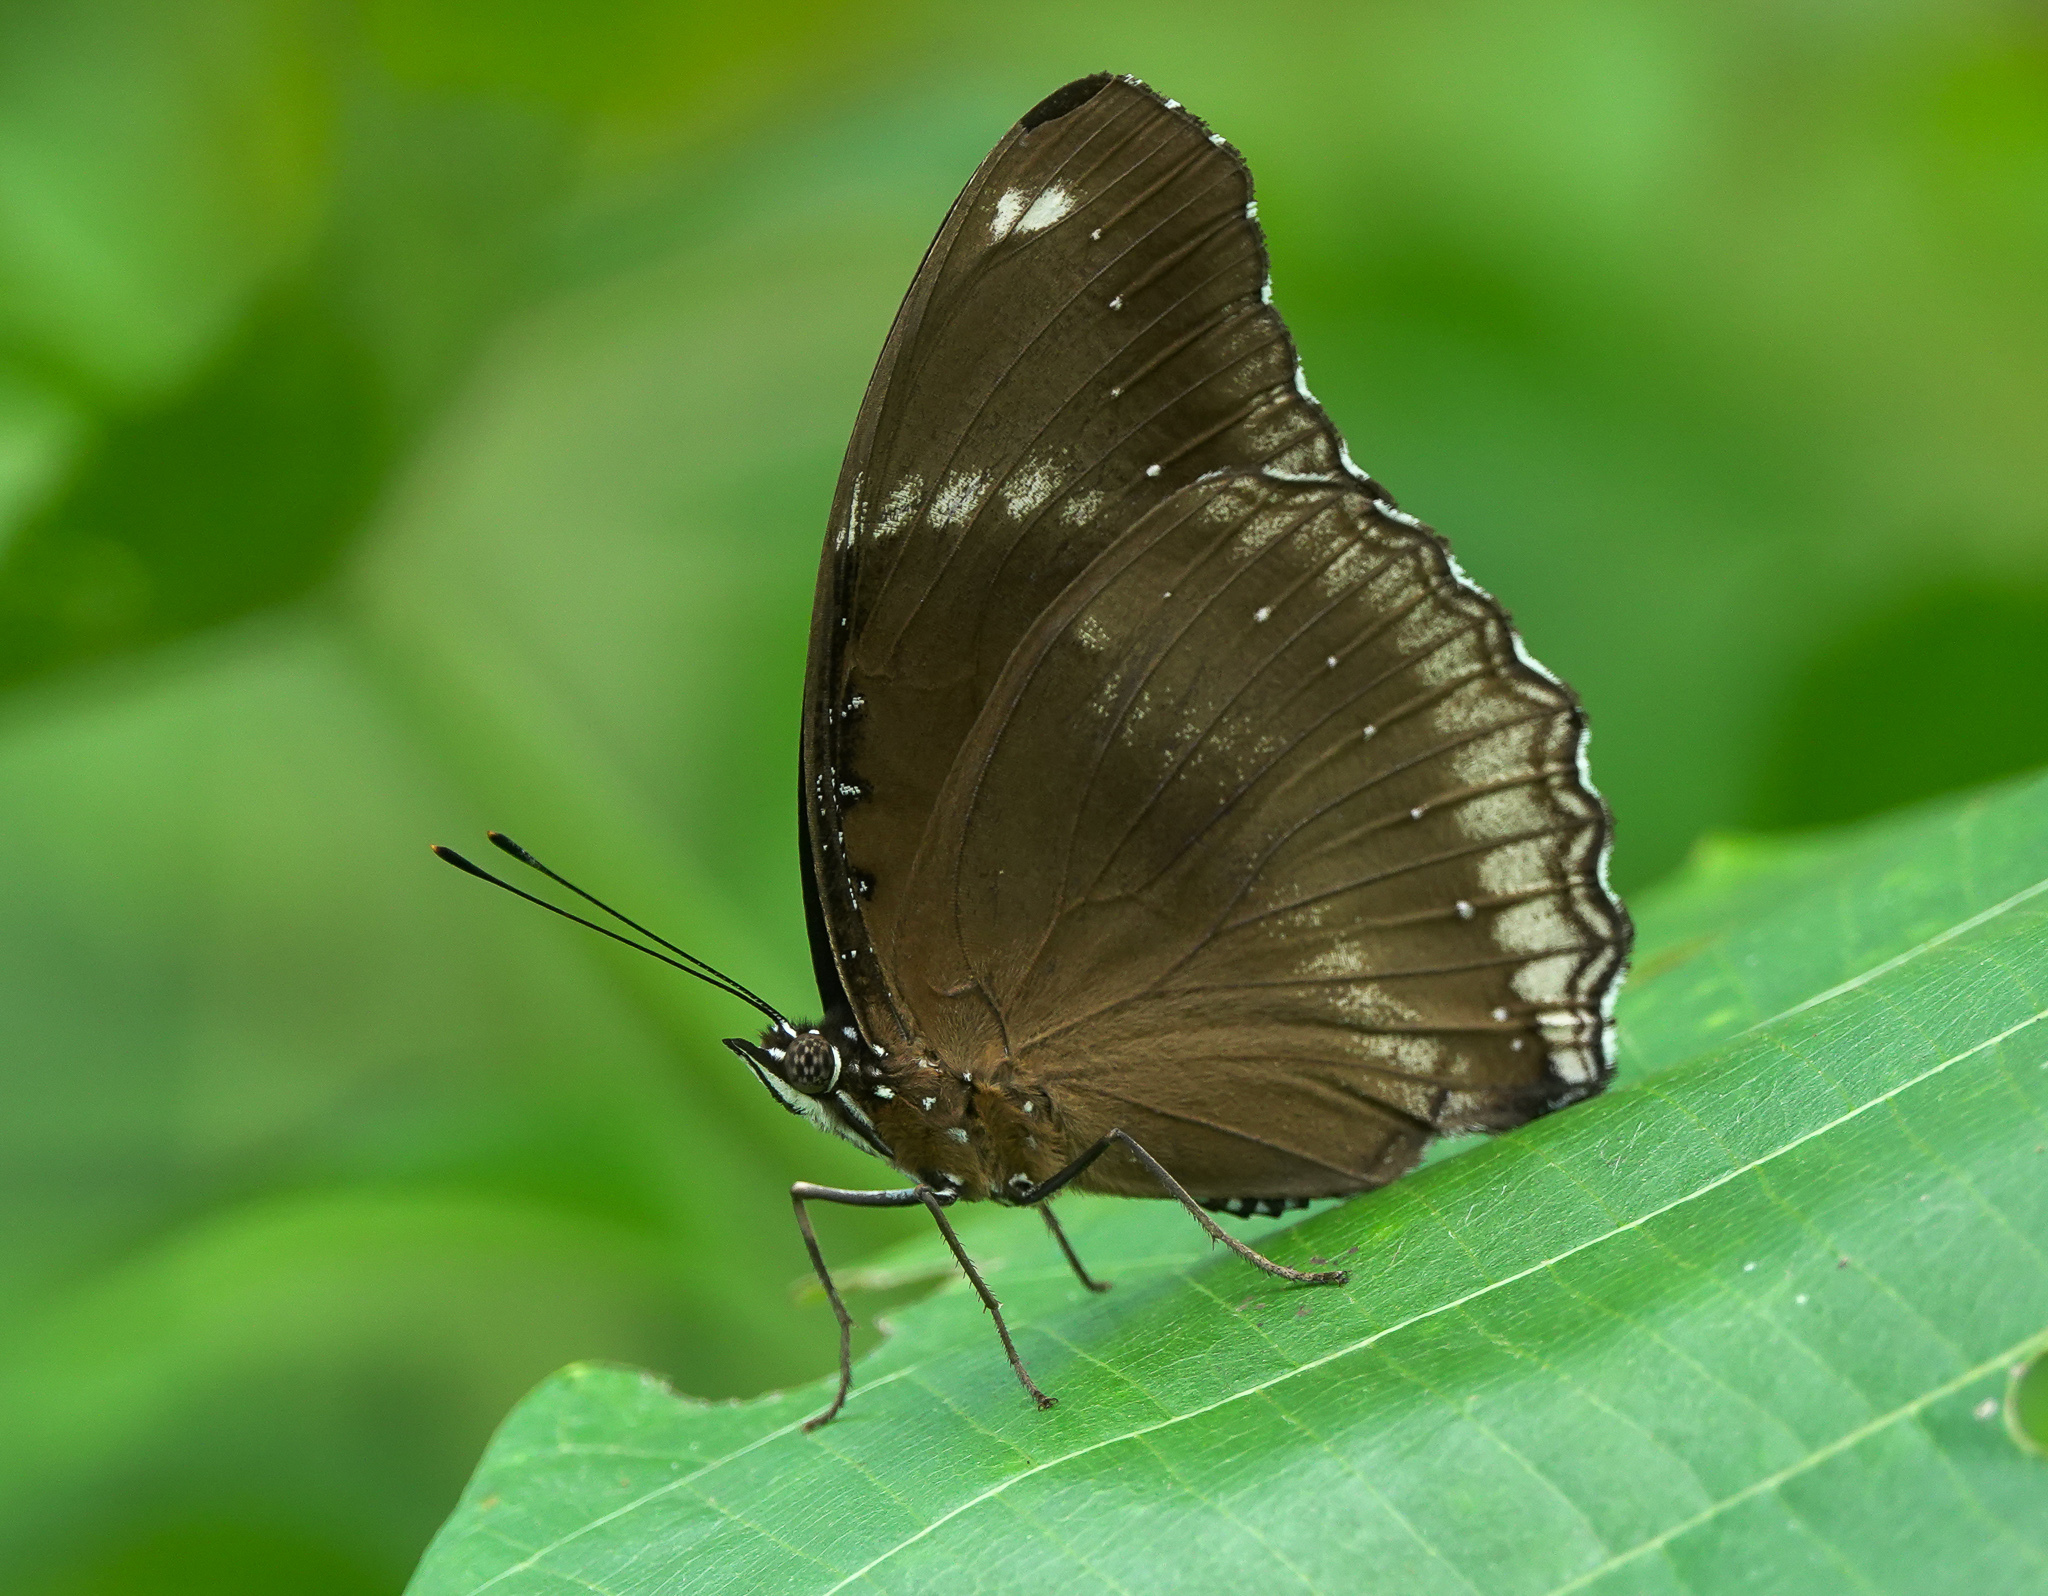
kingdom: Animalia
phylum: Arthropoda
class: Insecta
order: Lepidoptera
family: Nymphalidae
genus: Hypolimnas
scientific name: Hypolimnas bolina
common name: Great eggfly
